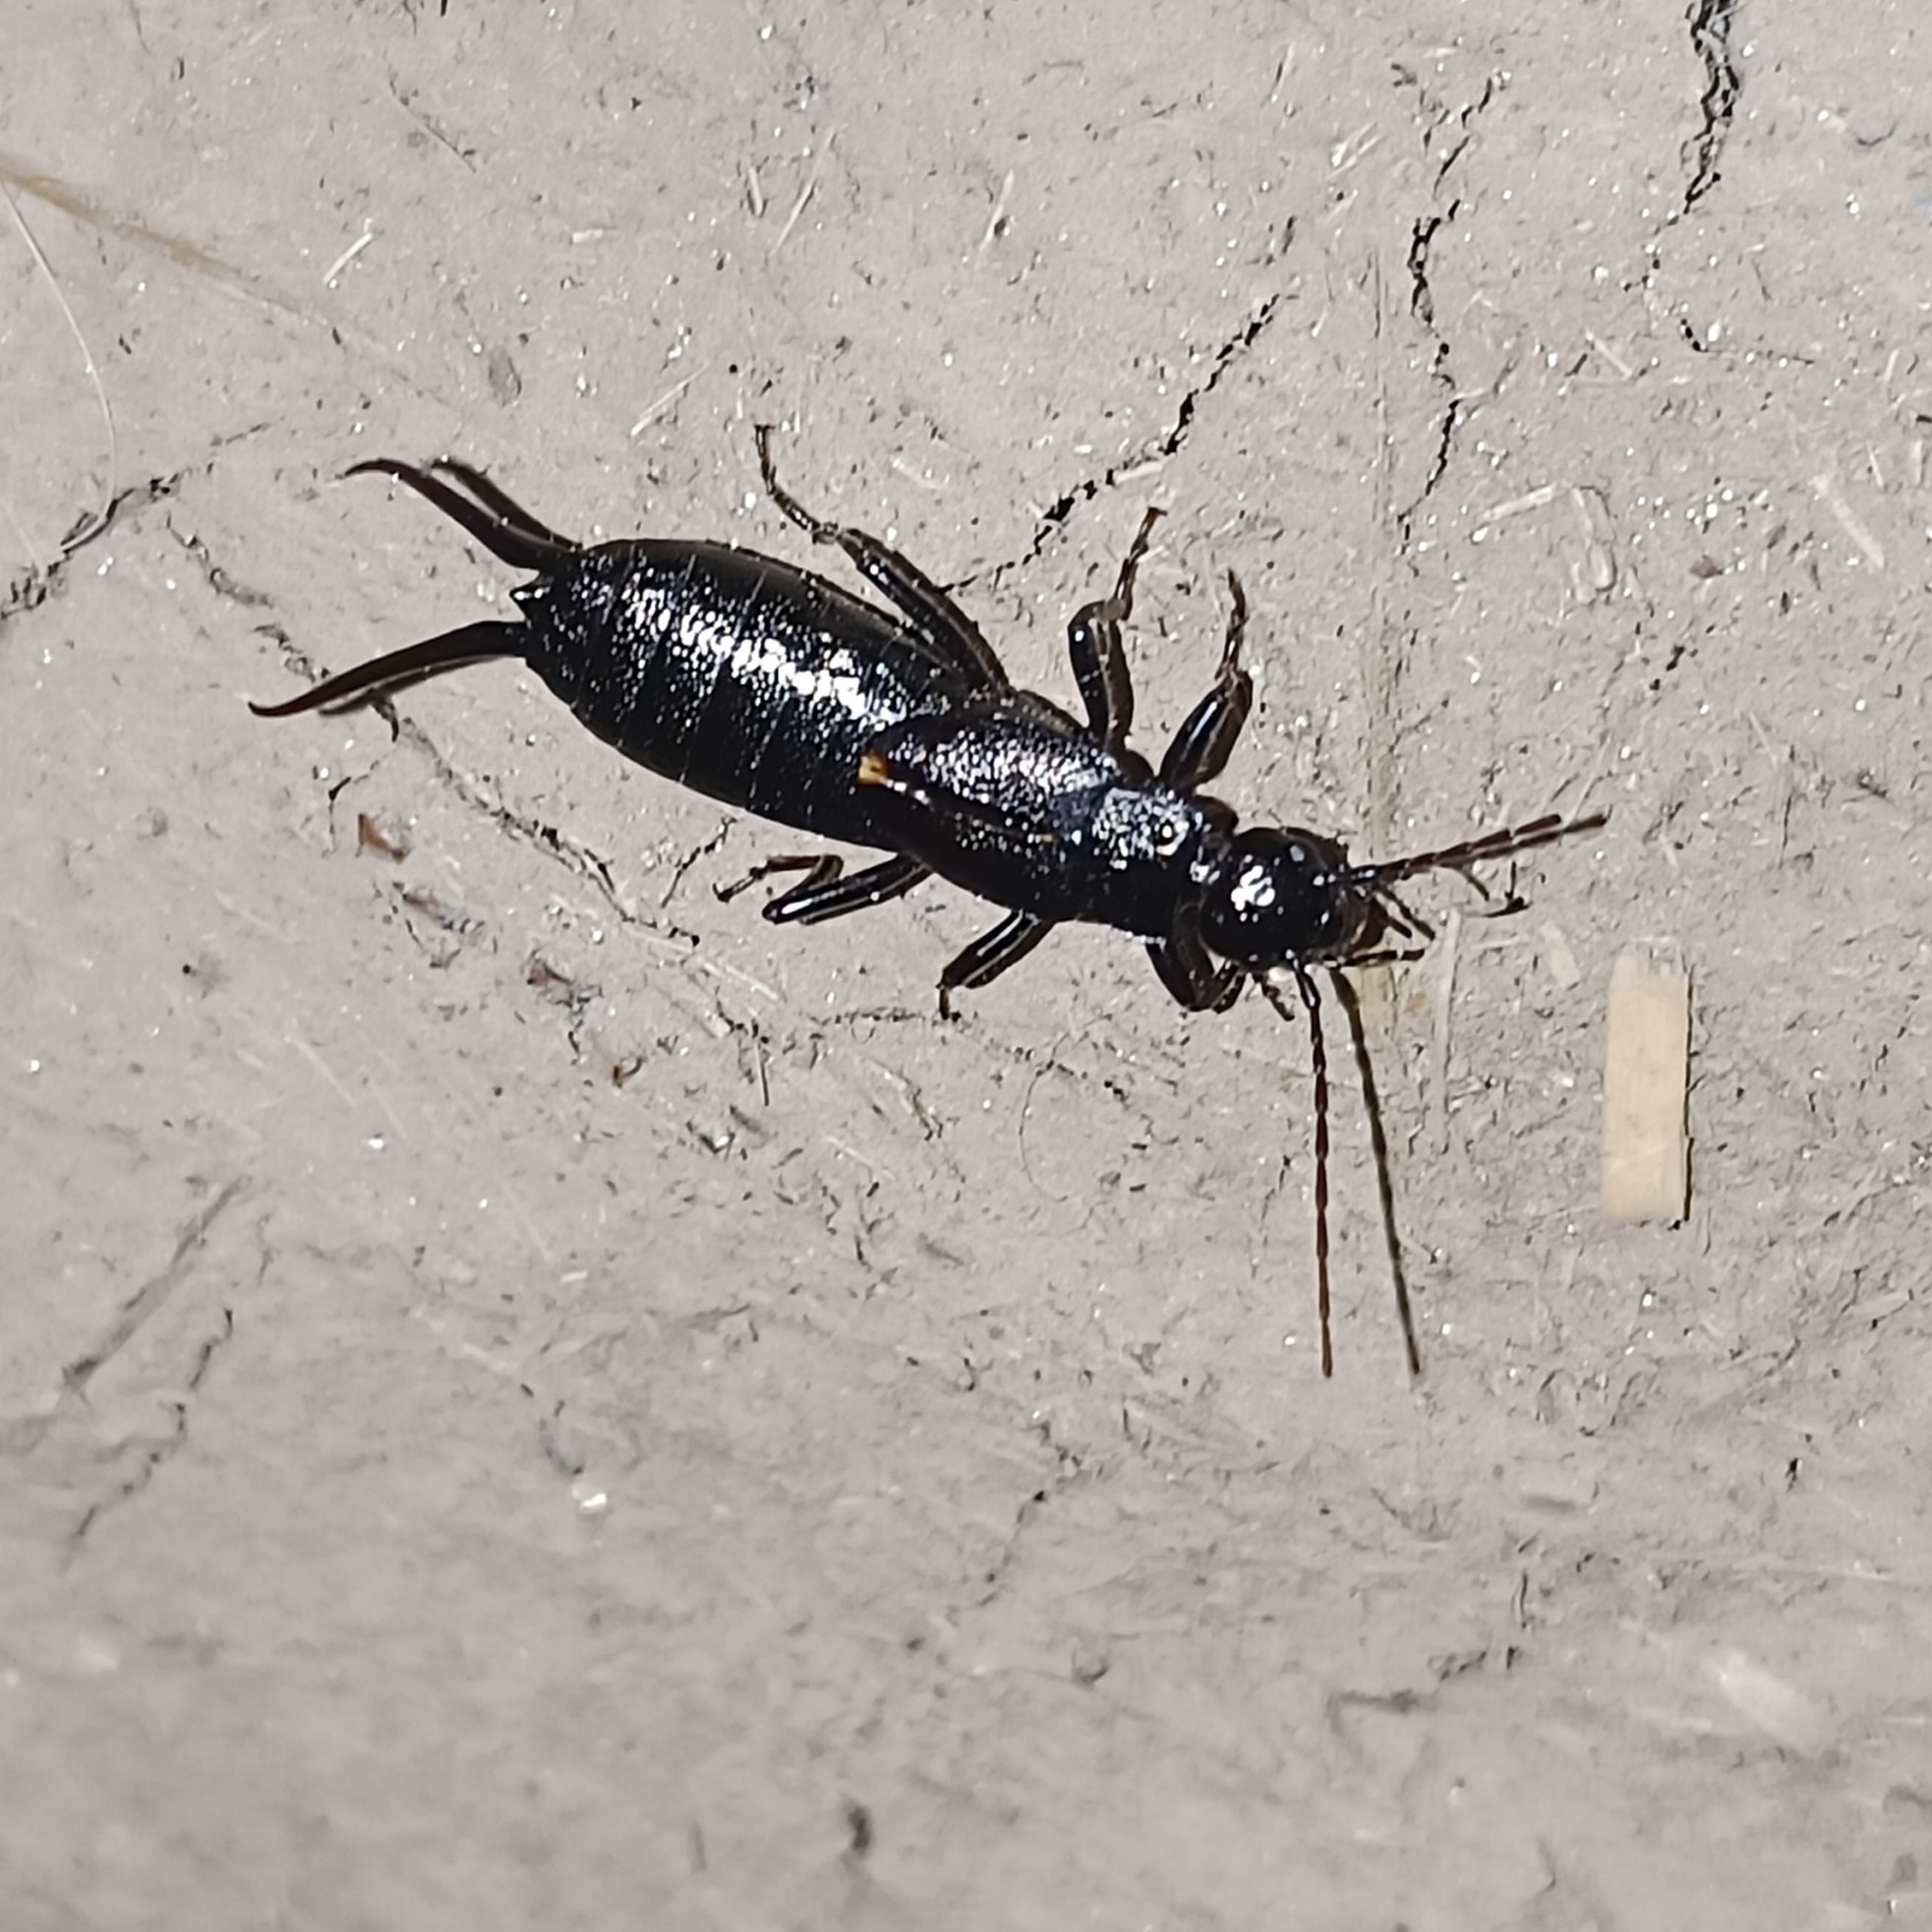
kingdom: Animalia
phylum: Arthropoda
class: Insecta
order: Dermaptera
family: Forficulidae
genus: Allodahlia
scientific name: Allodahlia macropyga
